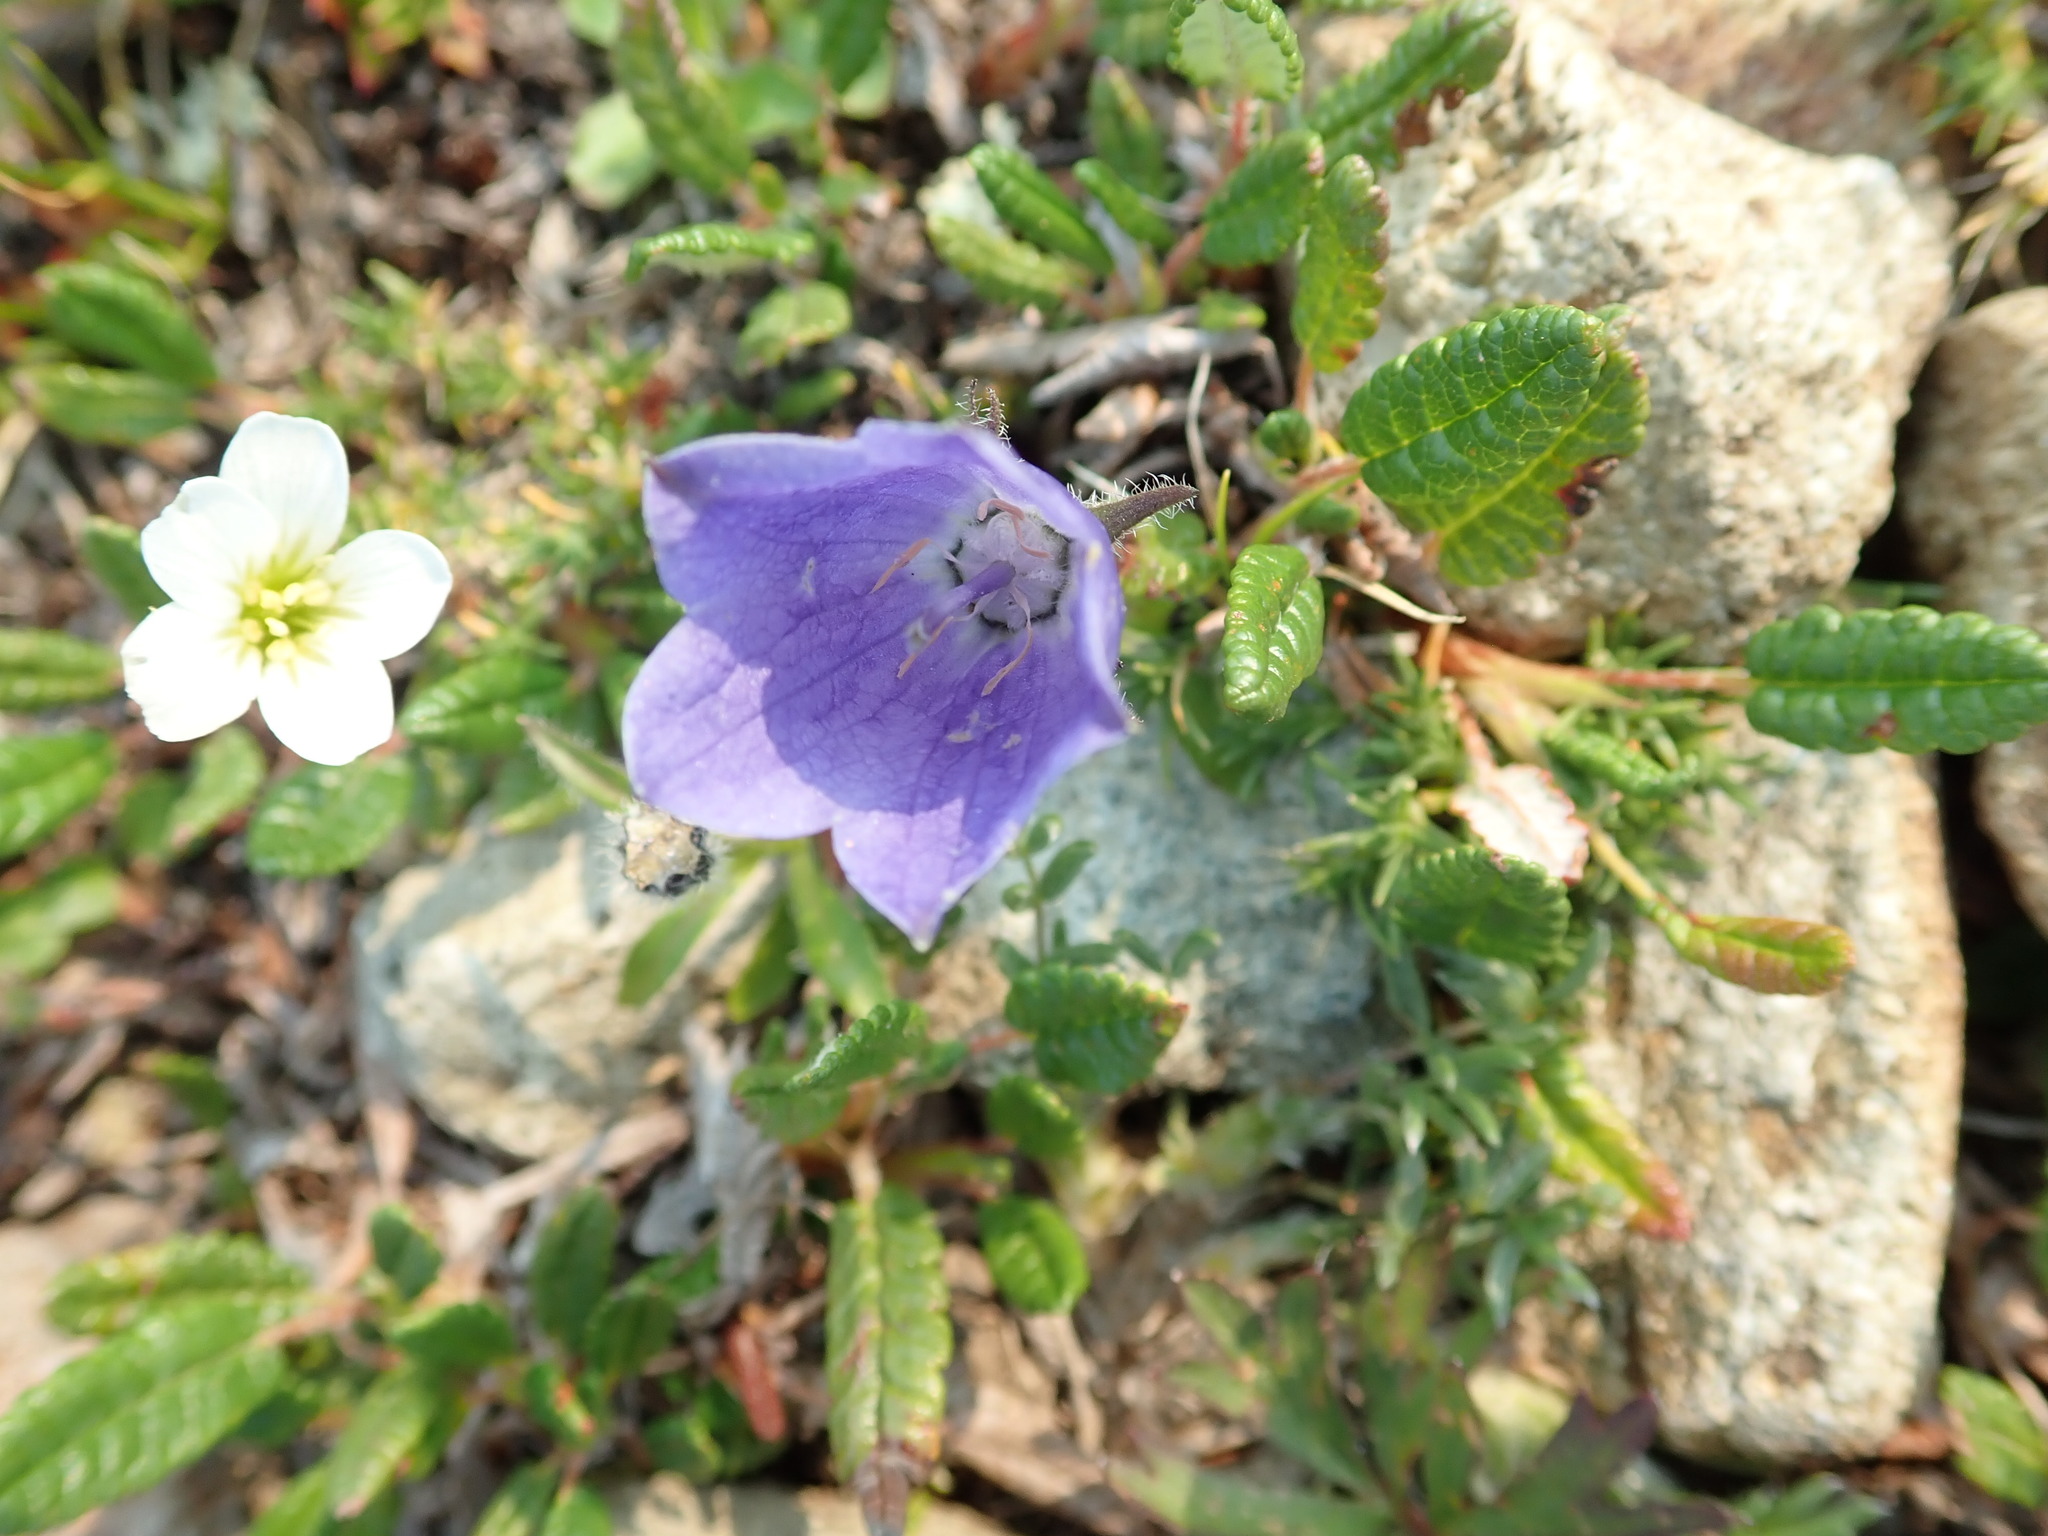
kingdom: Plantae
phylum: Tracheophyta
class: Magnoliopsida
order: Asterales
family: Campanulaceae
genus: Campanula
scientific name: Campanula lasiocarpa
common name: Mountain harebell
